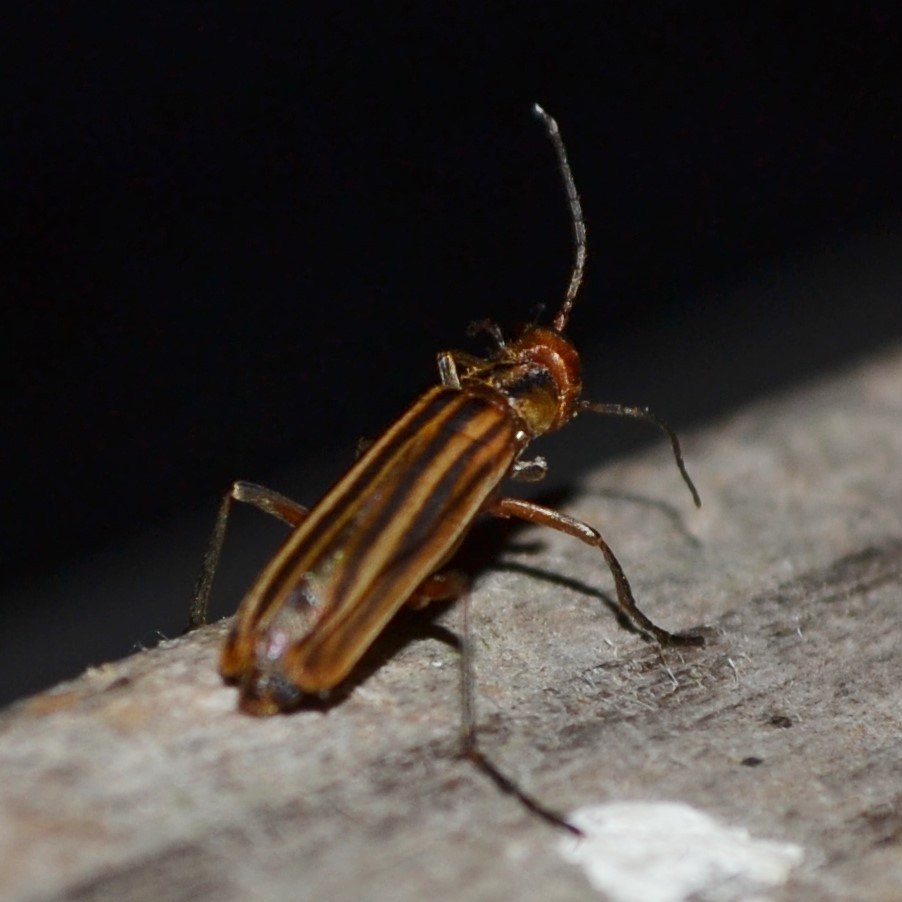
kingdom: Animalia
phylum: Arthropoda
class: Insecta
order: Coleoptera
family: Meloidae
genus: Epicauta
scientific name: Epicauta vittata
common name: Old-fashioned potato beetle
